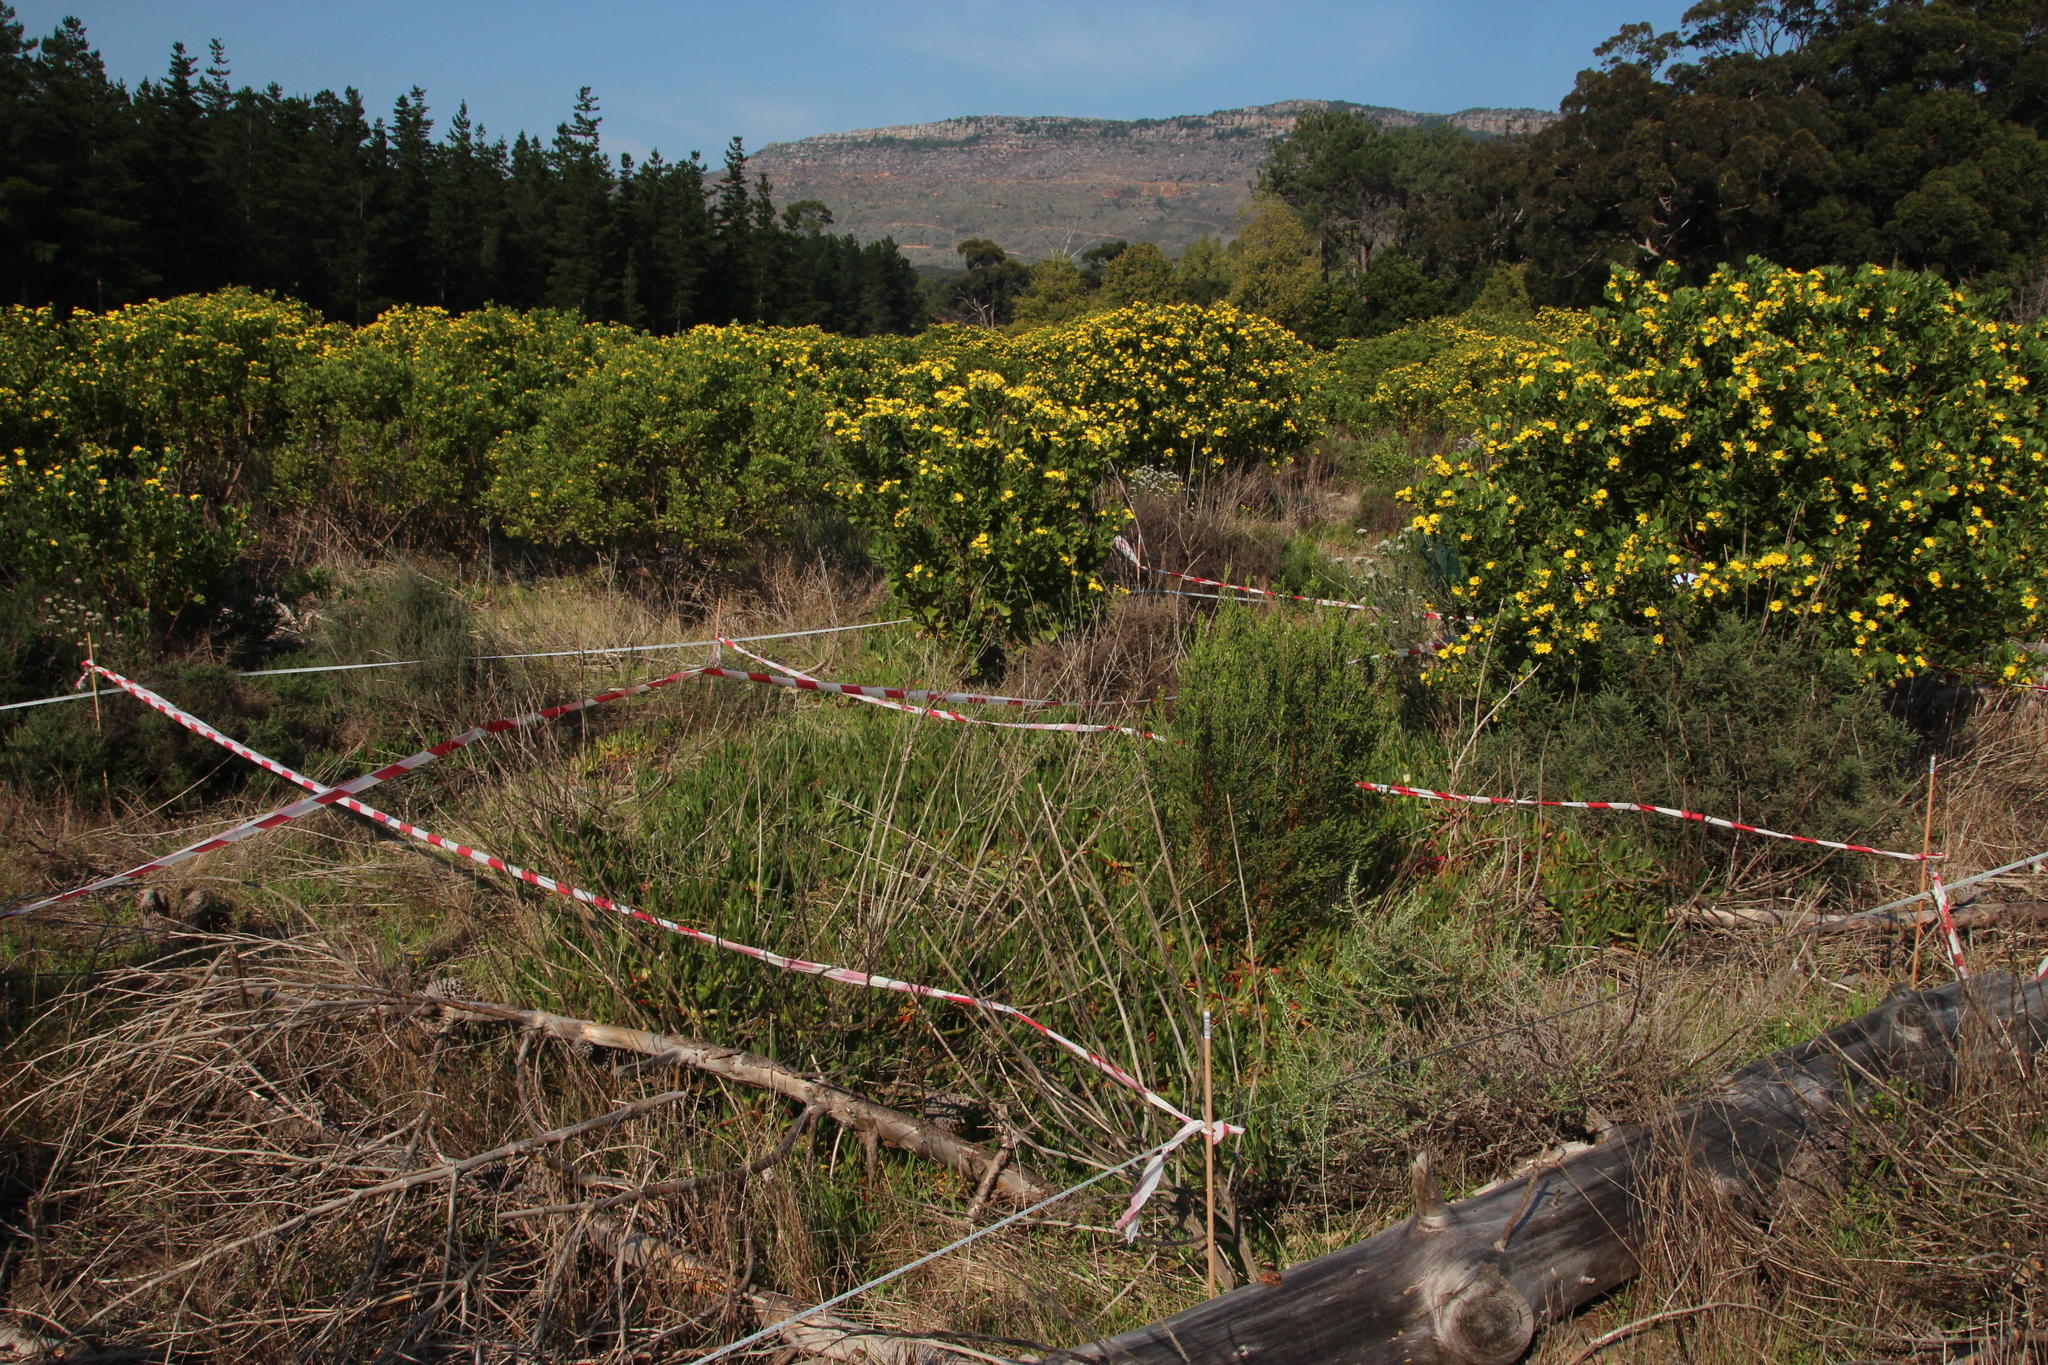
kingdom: Plantae
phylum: Tracheophyta
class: Magnoliopsida
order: Caryophyllales
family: Aizoaceae
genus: Carpobrotus
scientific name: Carpobrotus edulis
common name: Hottentot-fig
